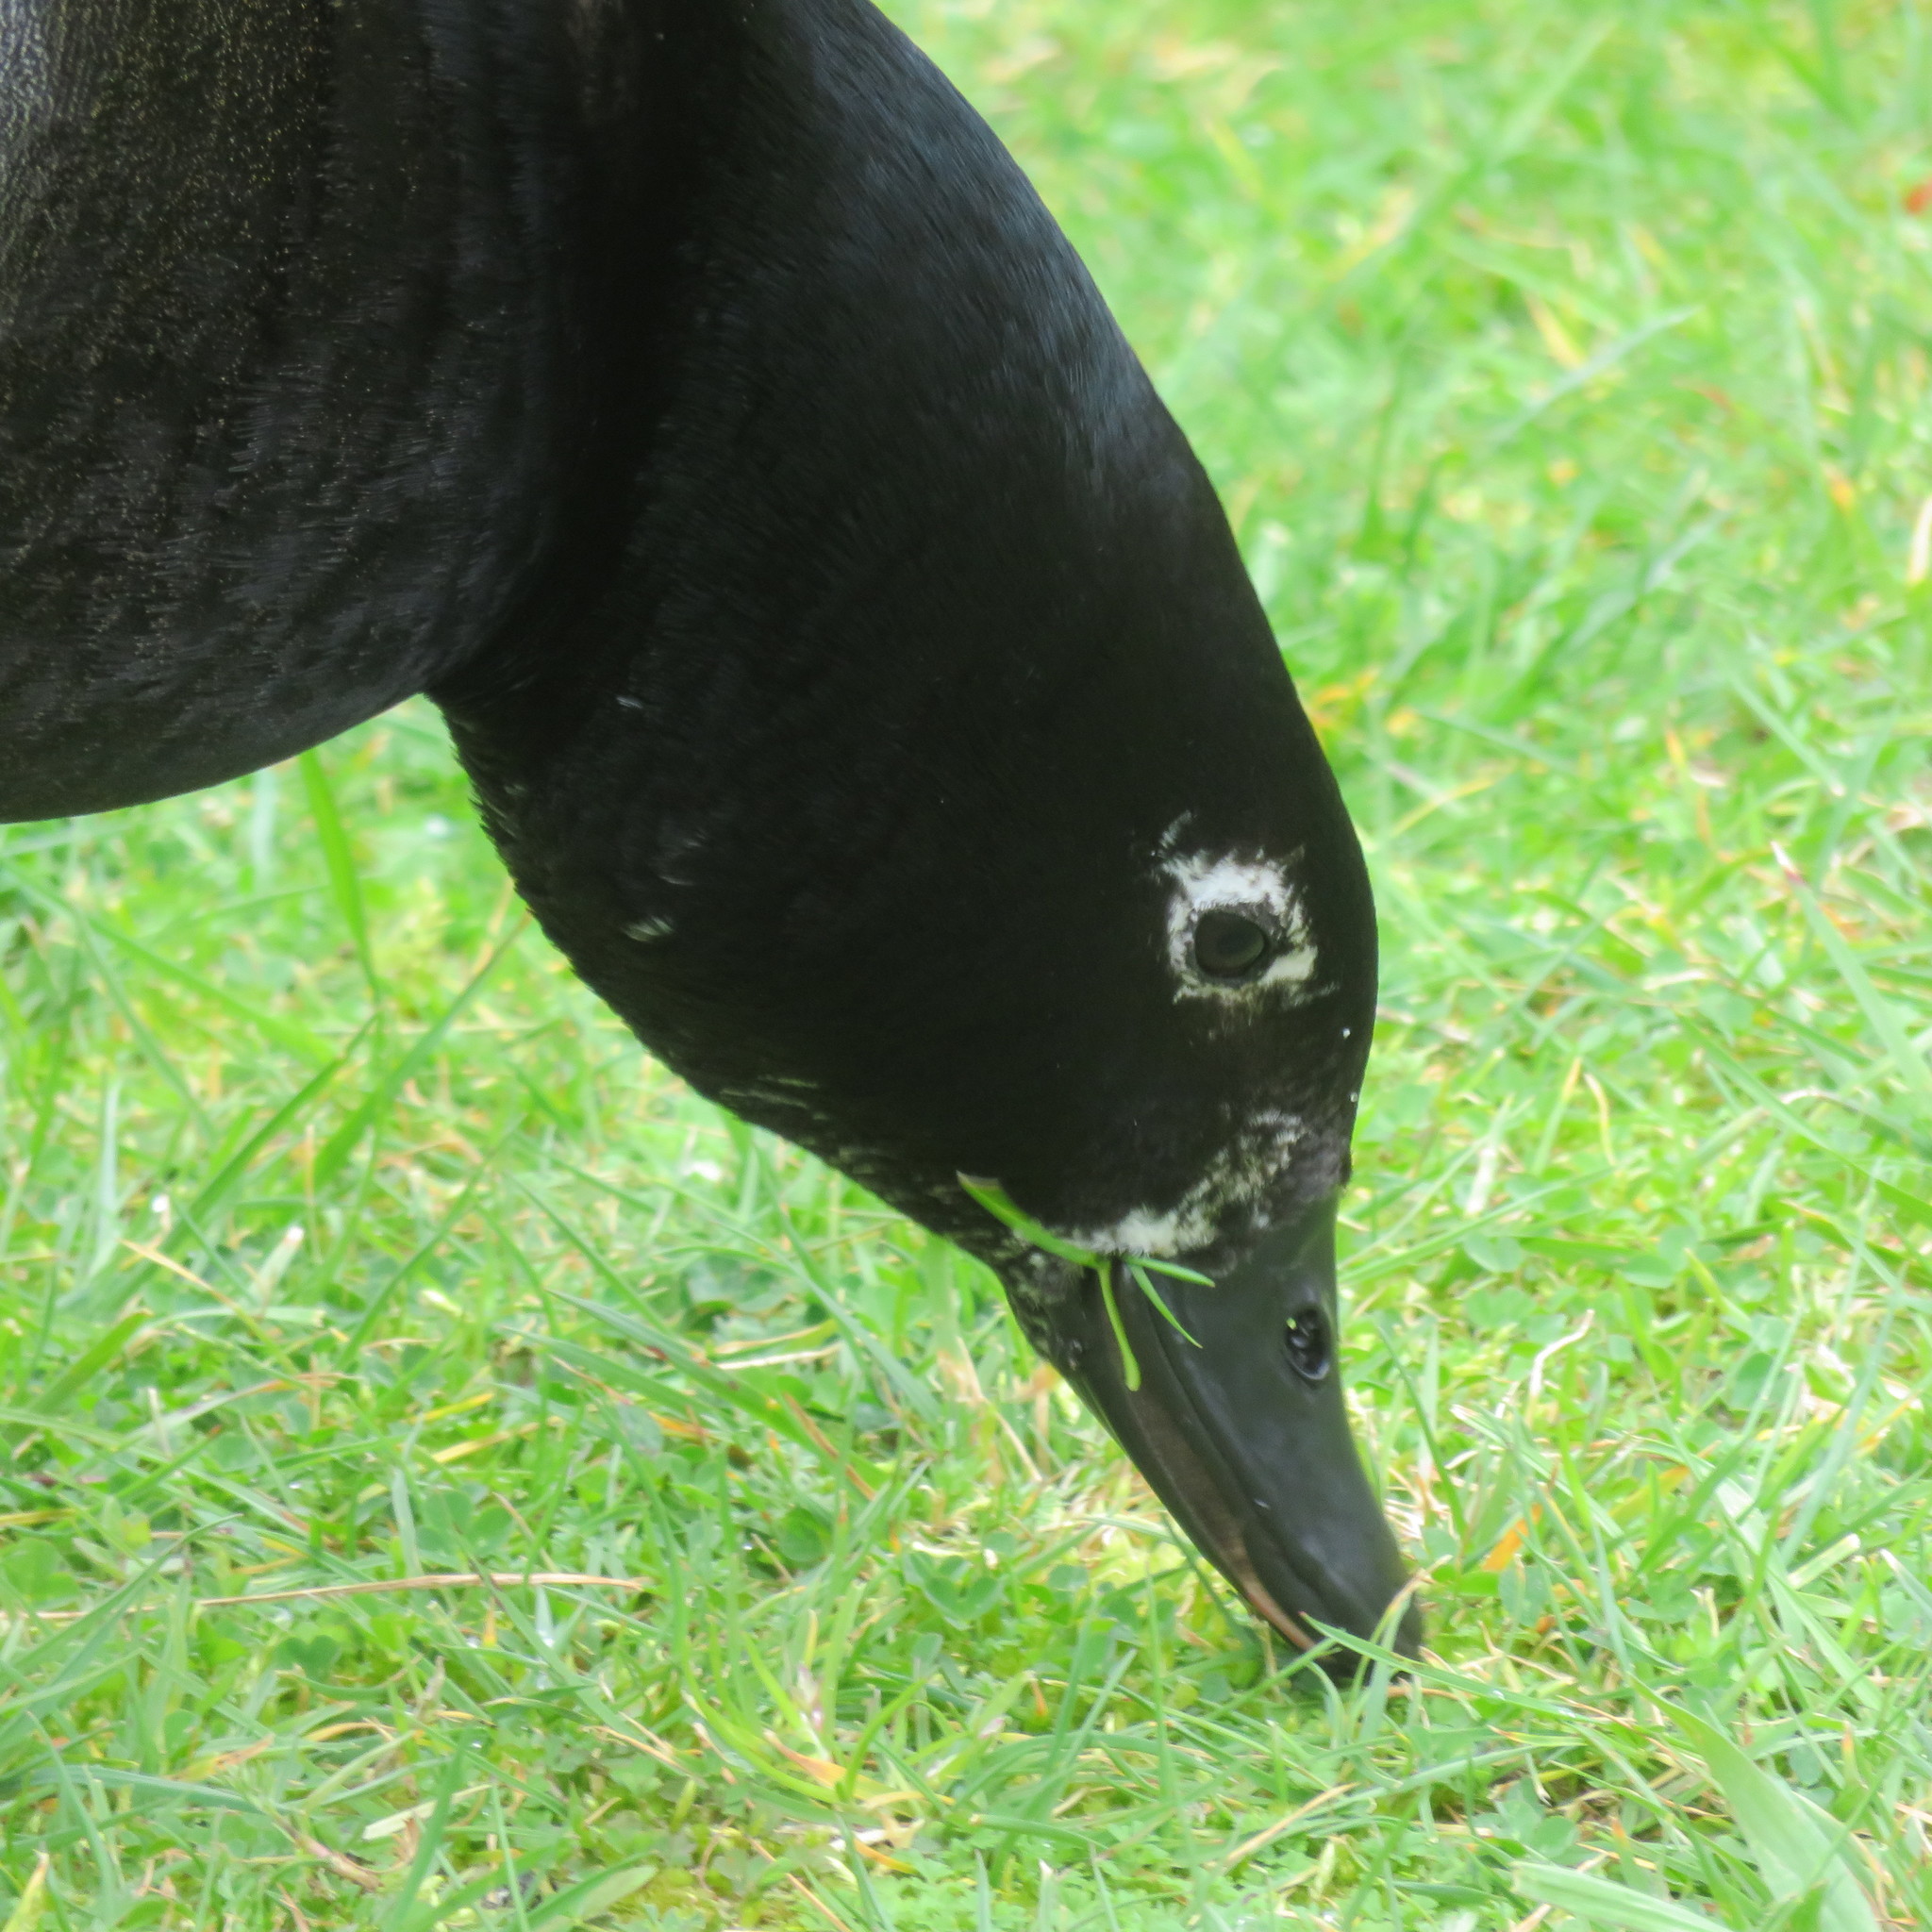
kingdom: Animalia
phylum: Chordata
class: Aves
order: Anseriformes
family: Anatidae
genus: Tadorna
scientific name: Tadorna variegata
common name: Paradise shelduck
